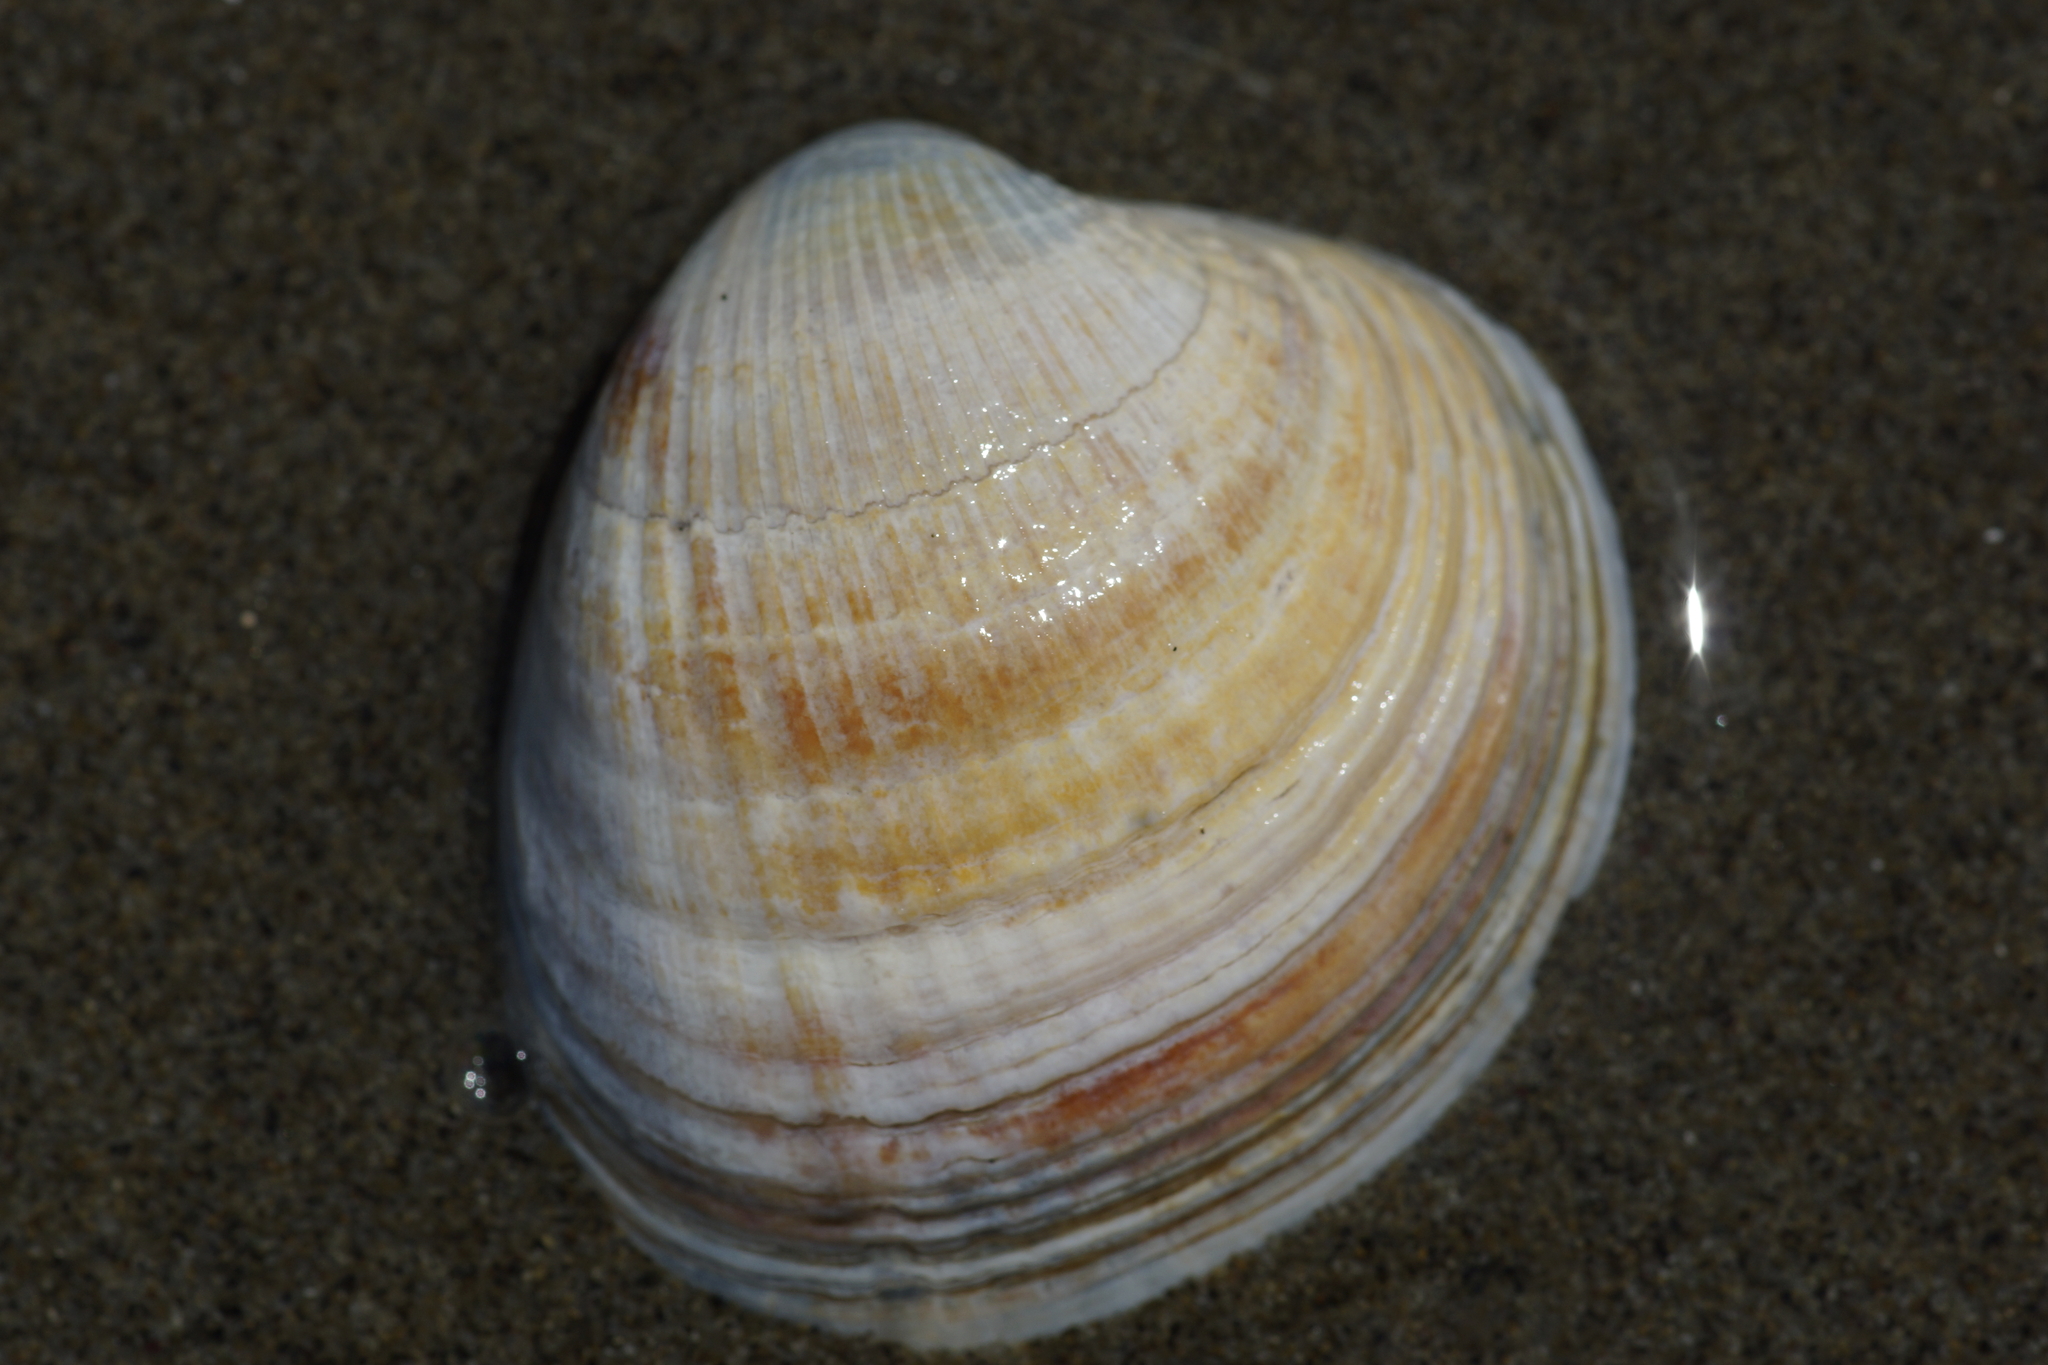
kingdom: Animalia
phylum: Mollusca
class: Bivalvia
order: Venerida
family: Veneridae
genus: Austrovenus
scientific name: Austrovenus stutchburyi
